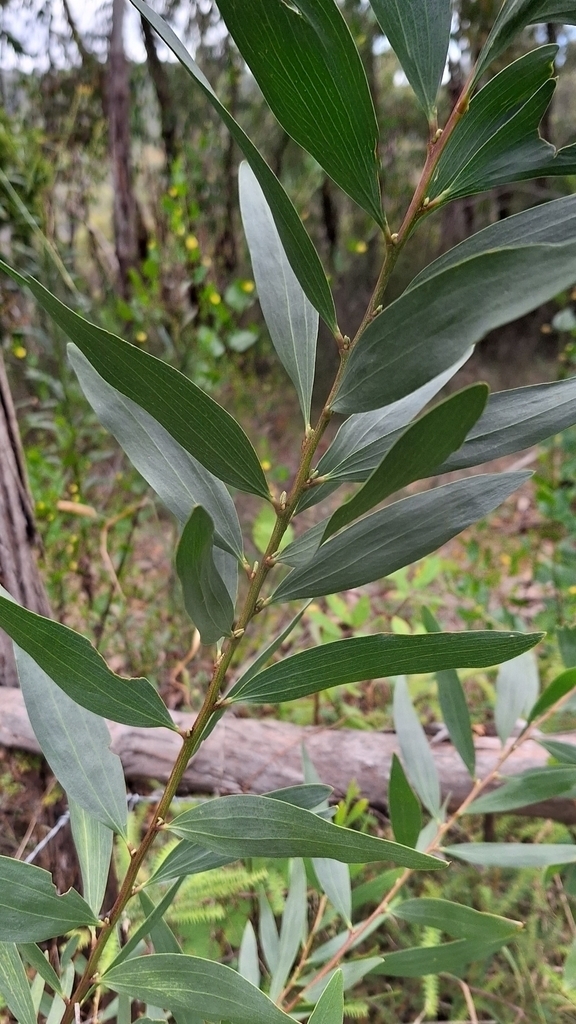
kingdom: Plantae
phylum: Tracheophyta
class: Magnoliopsida
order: Fabales
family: Fabaceae
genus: Acacia
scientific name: Acacia longifolia
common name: Sydney golden wattle
